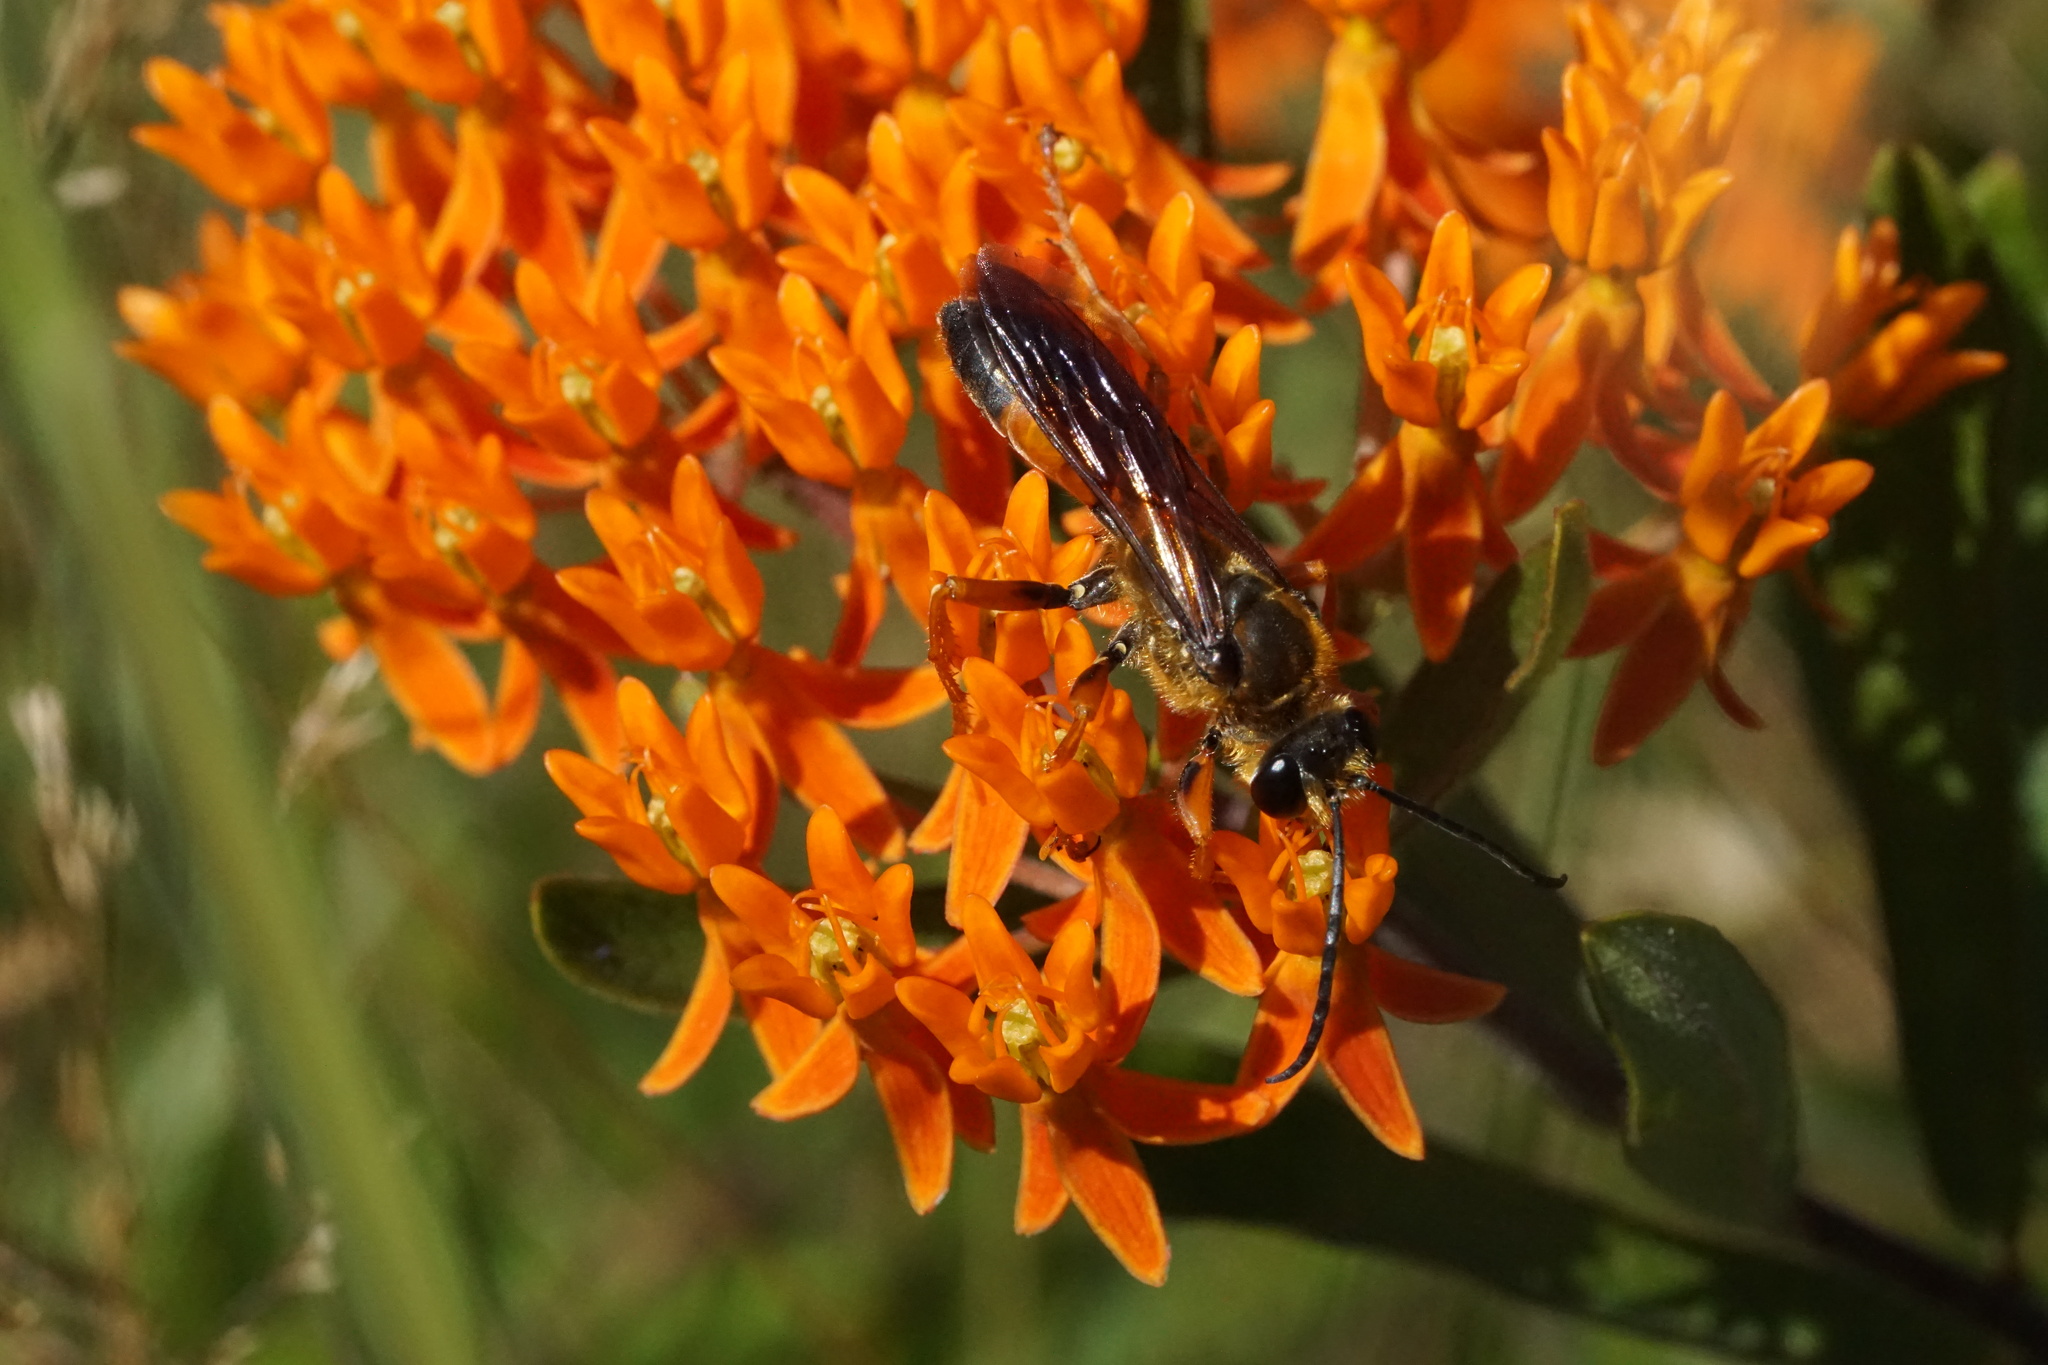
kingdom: Animalia
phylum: Arthropoda
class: Insecta
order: Hymenoptera
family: Sphecidae
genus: Sphex
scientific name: Sphex ichneumoneus
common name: Great golden digger wasp
